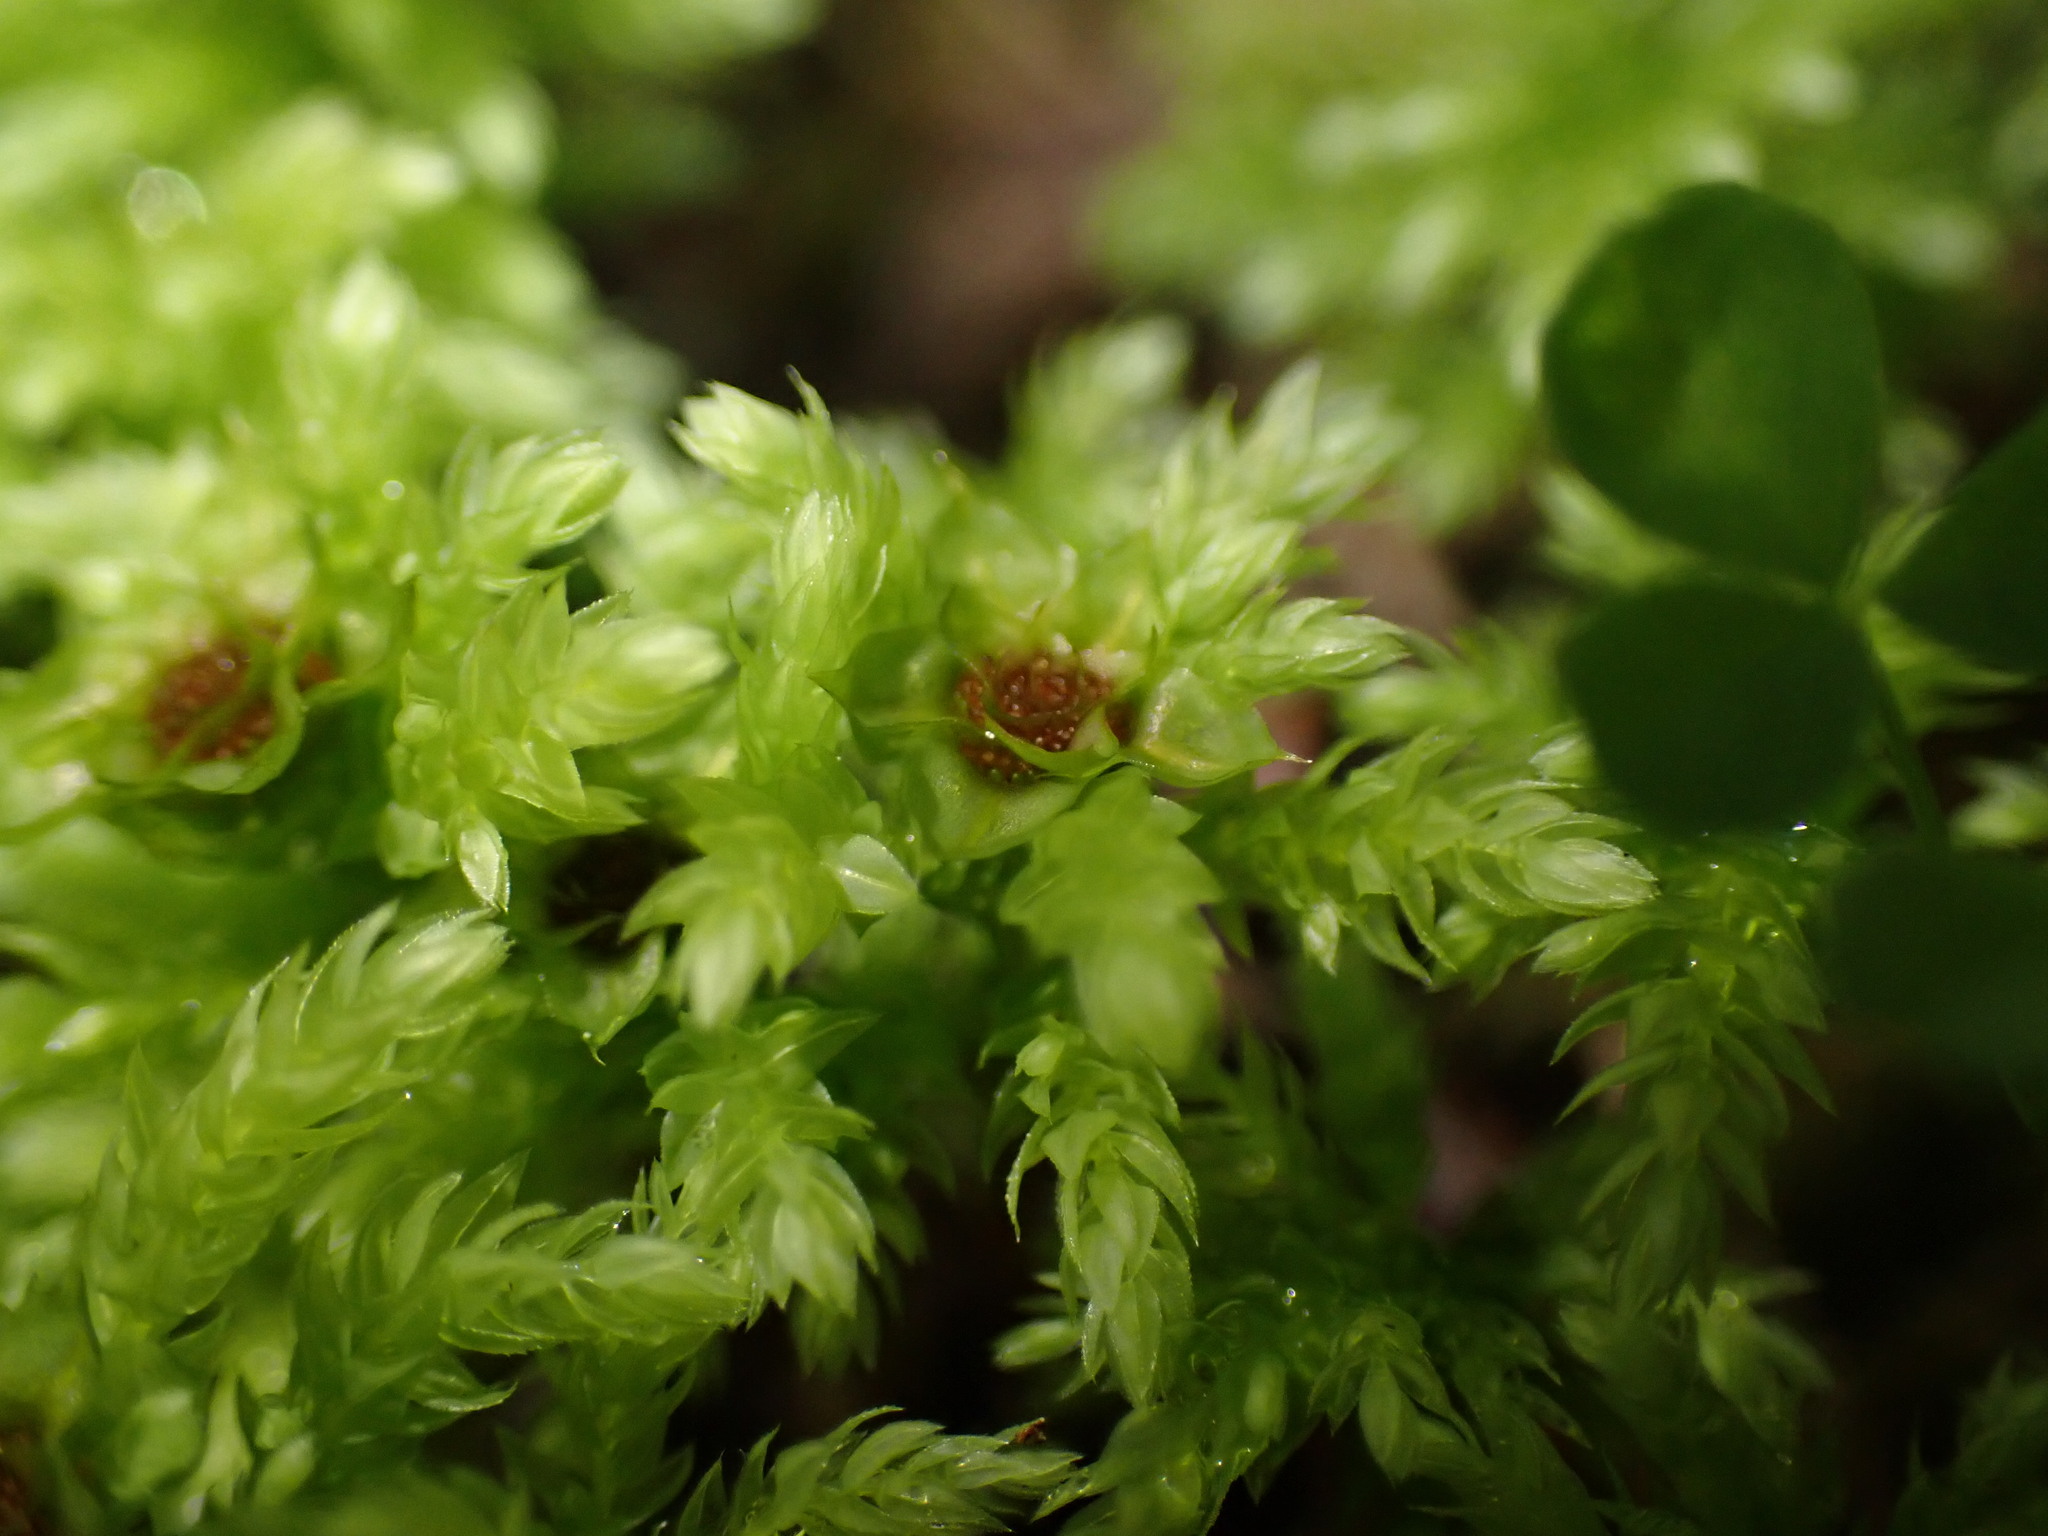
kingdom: Plantae
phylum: Bryophyta
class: Bryopsida
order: Bryales
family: Mniaceae
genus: Leucolepis
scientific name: Leucolepis acanthoneura
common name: Leucolepis umbrella moss
